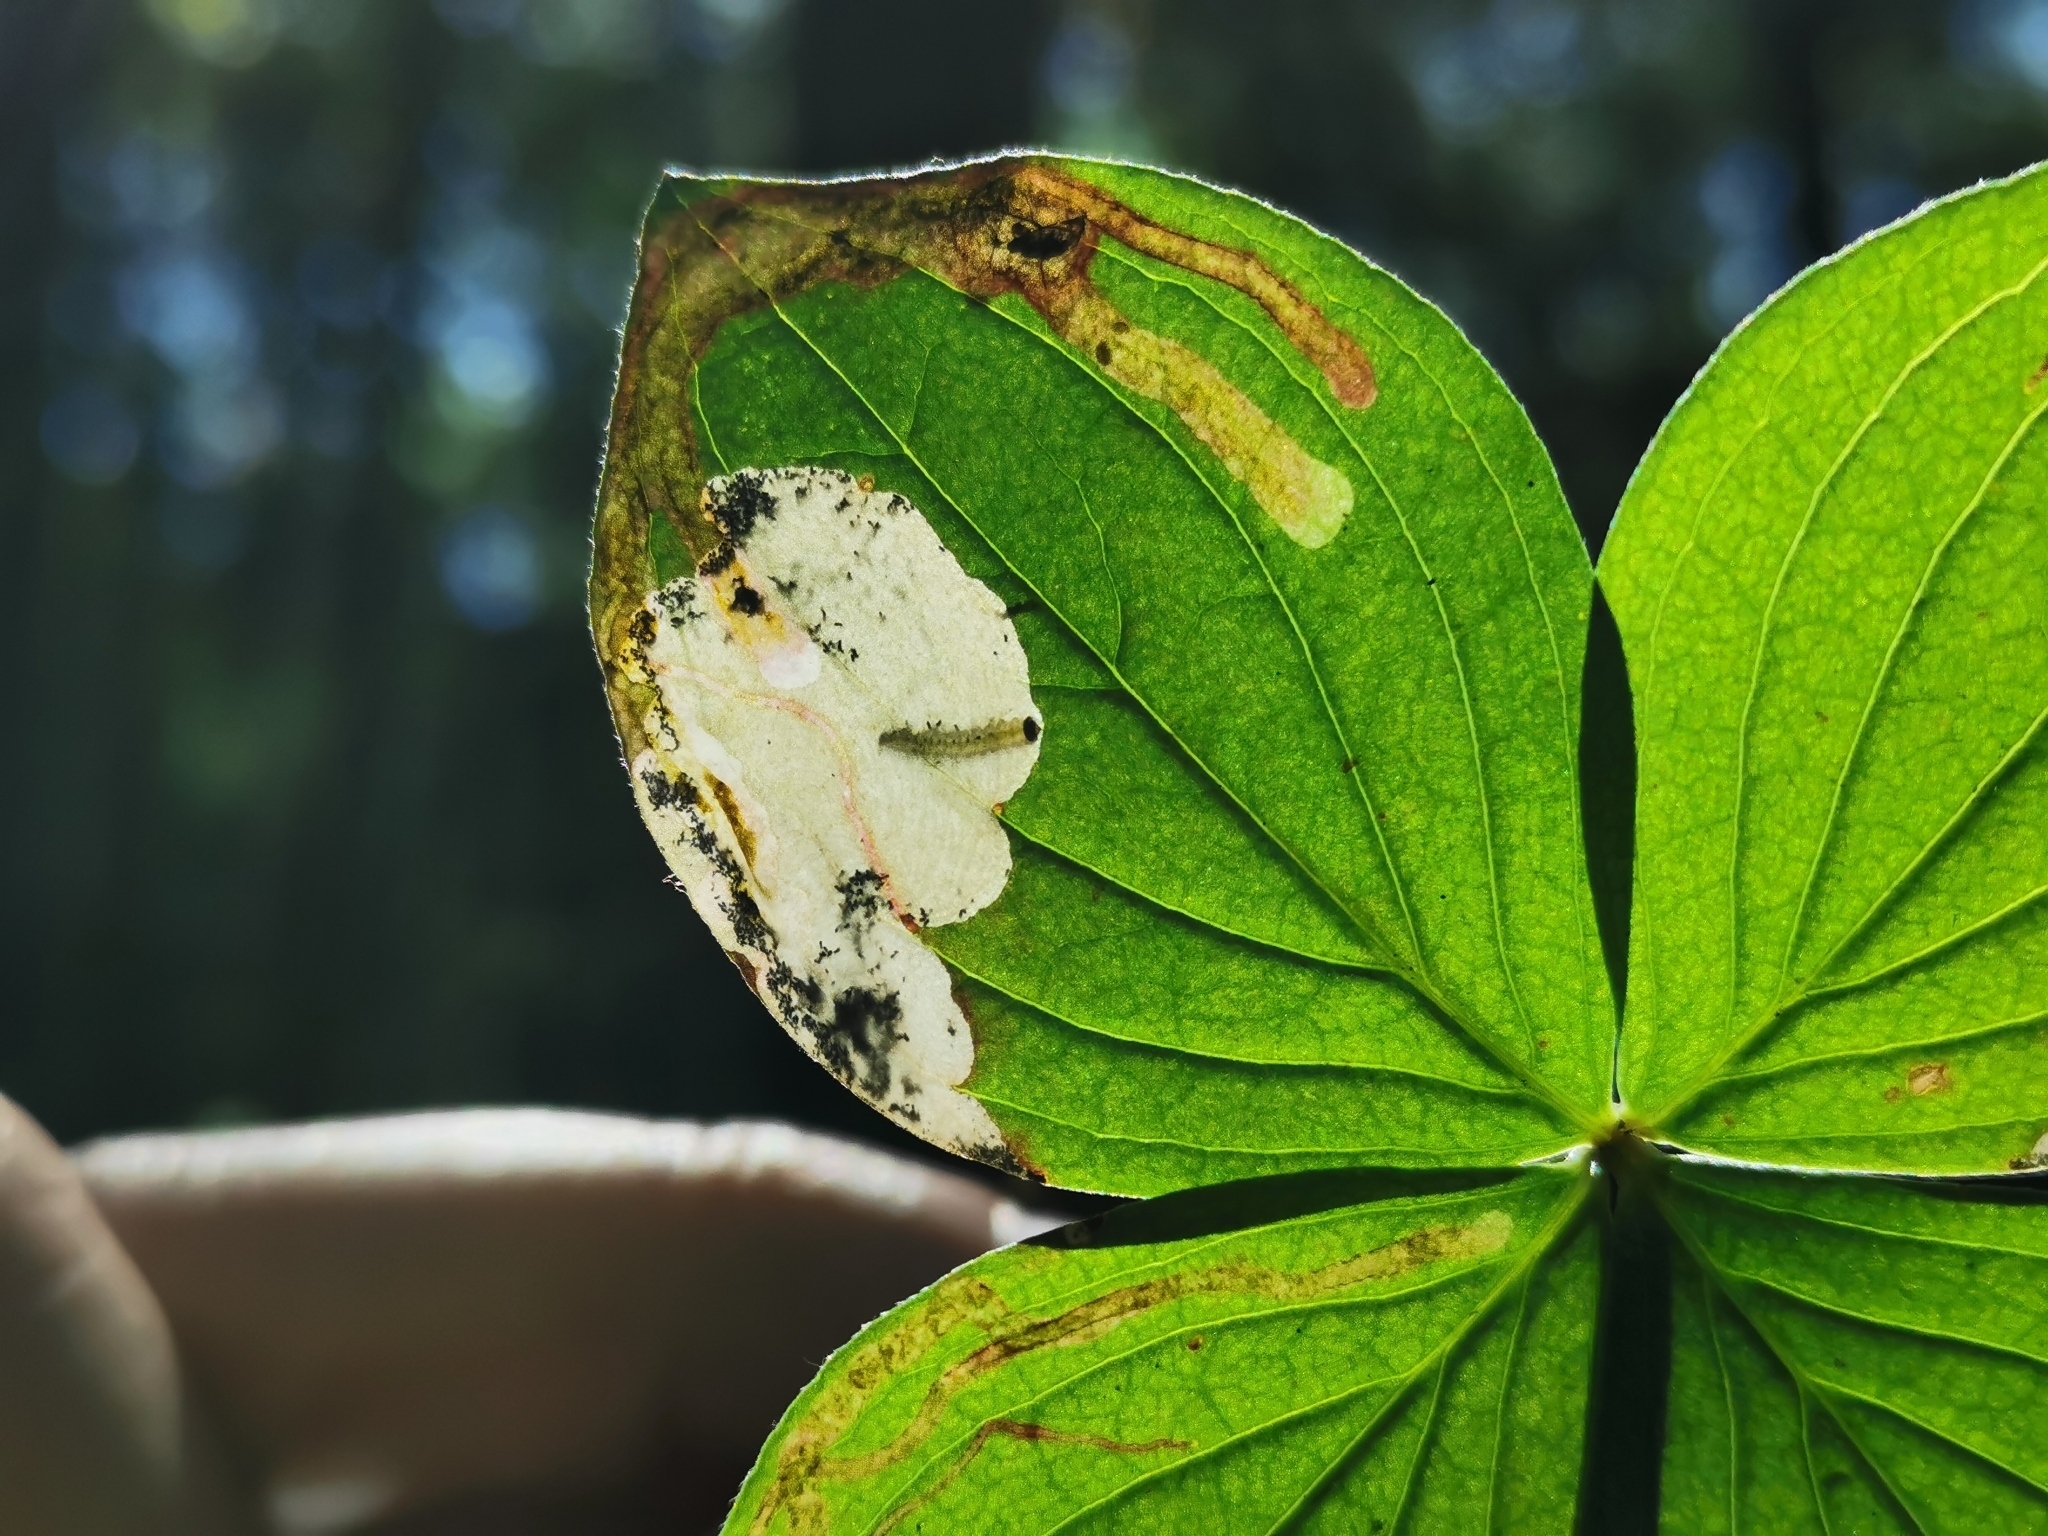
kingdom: Animalia
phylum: Arthropoda
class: Insecta
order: Lepidoptera
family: Heliozelidae
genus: Antispila
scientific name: Antispila freemani
